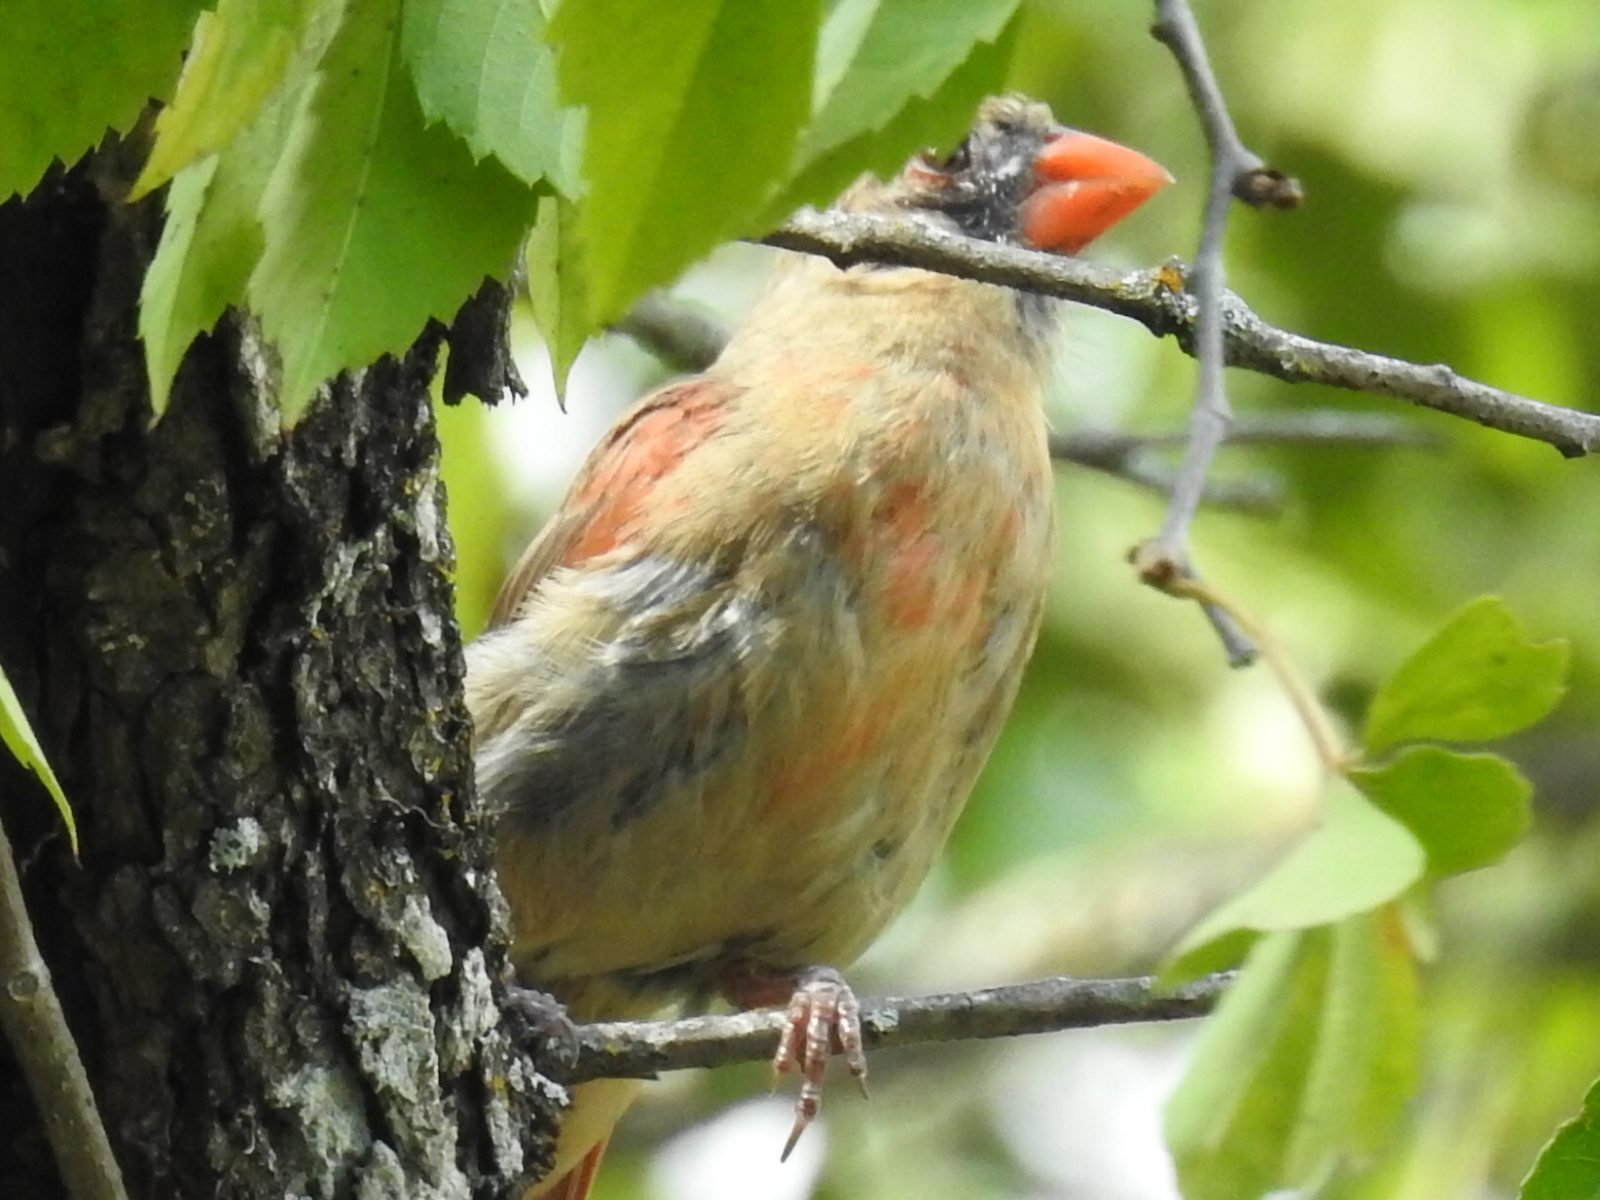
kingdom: Animalia
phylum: Chordata
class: Aves
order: Passeriformes
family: Cardinalidae
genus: Cardinalis
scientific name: Cardinalis cardinalis
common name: Northern cardinal
